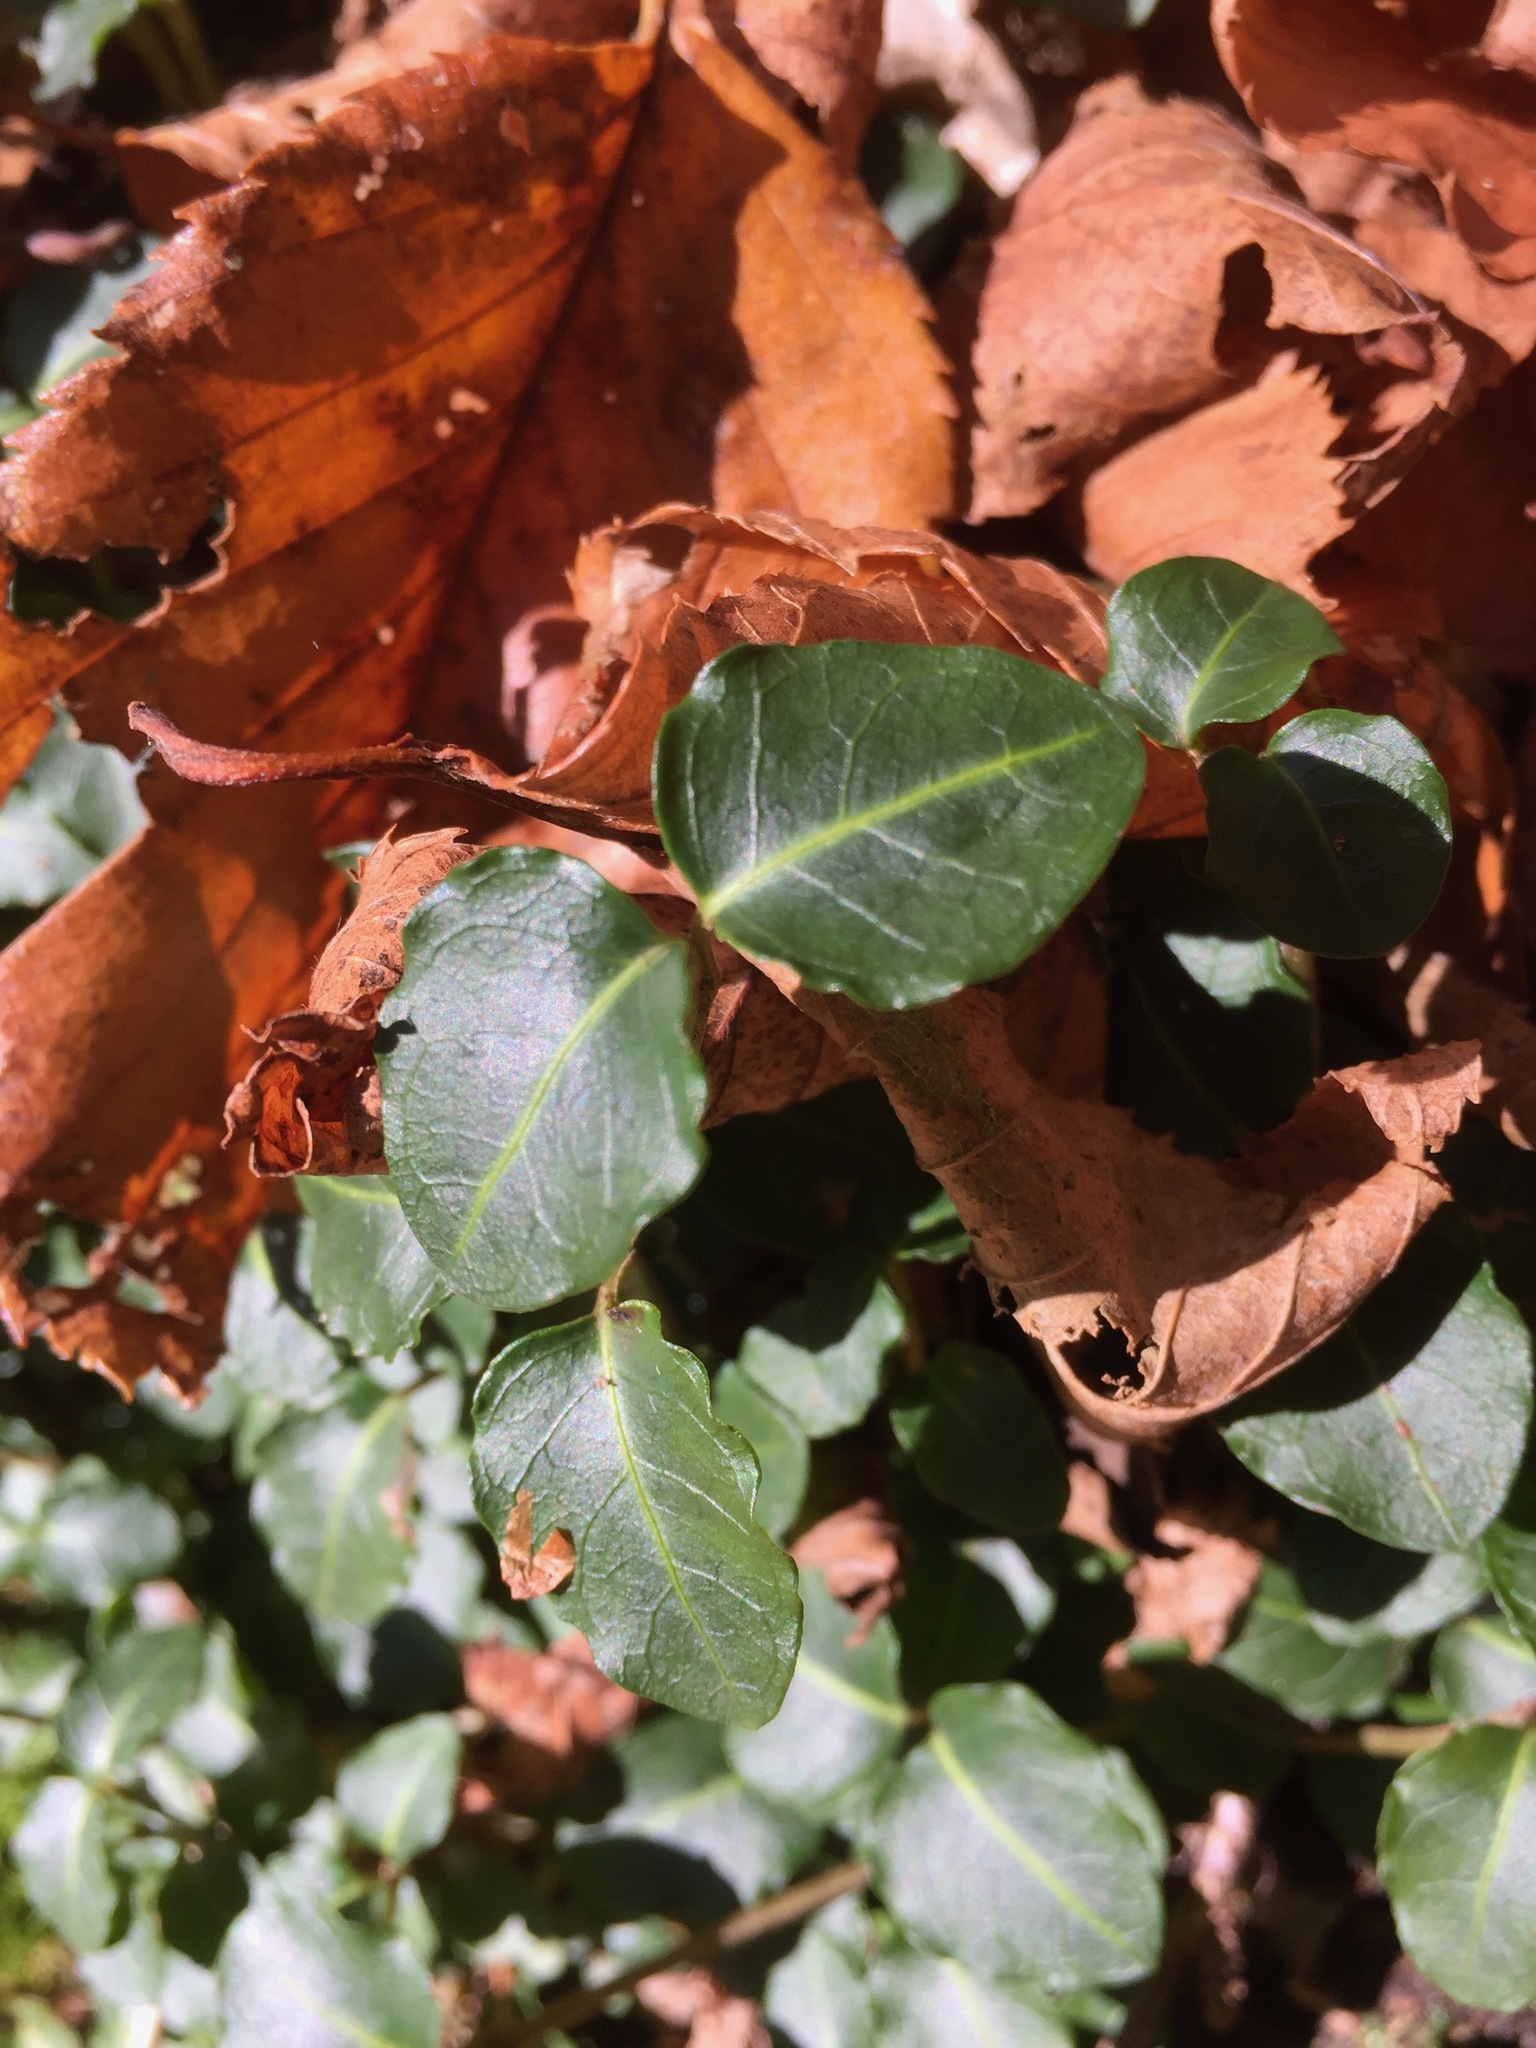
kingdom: Plantae
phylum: Tracheophyta
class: Magnoliopsida
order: Gentianales
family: Rubiaceae
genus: Mitchella
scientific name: Mitchella repens
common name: Partridge-berry
